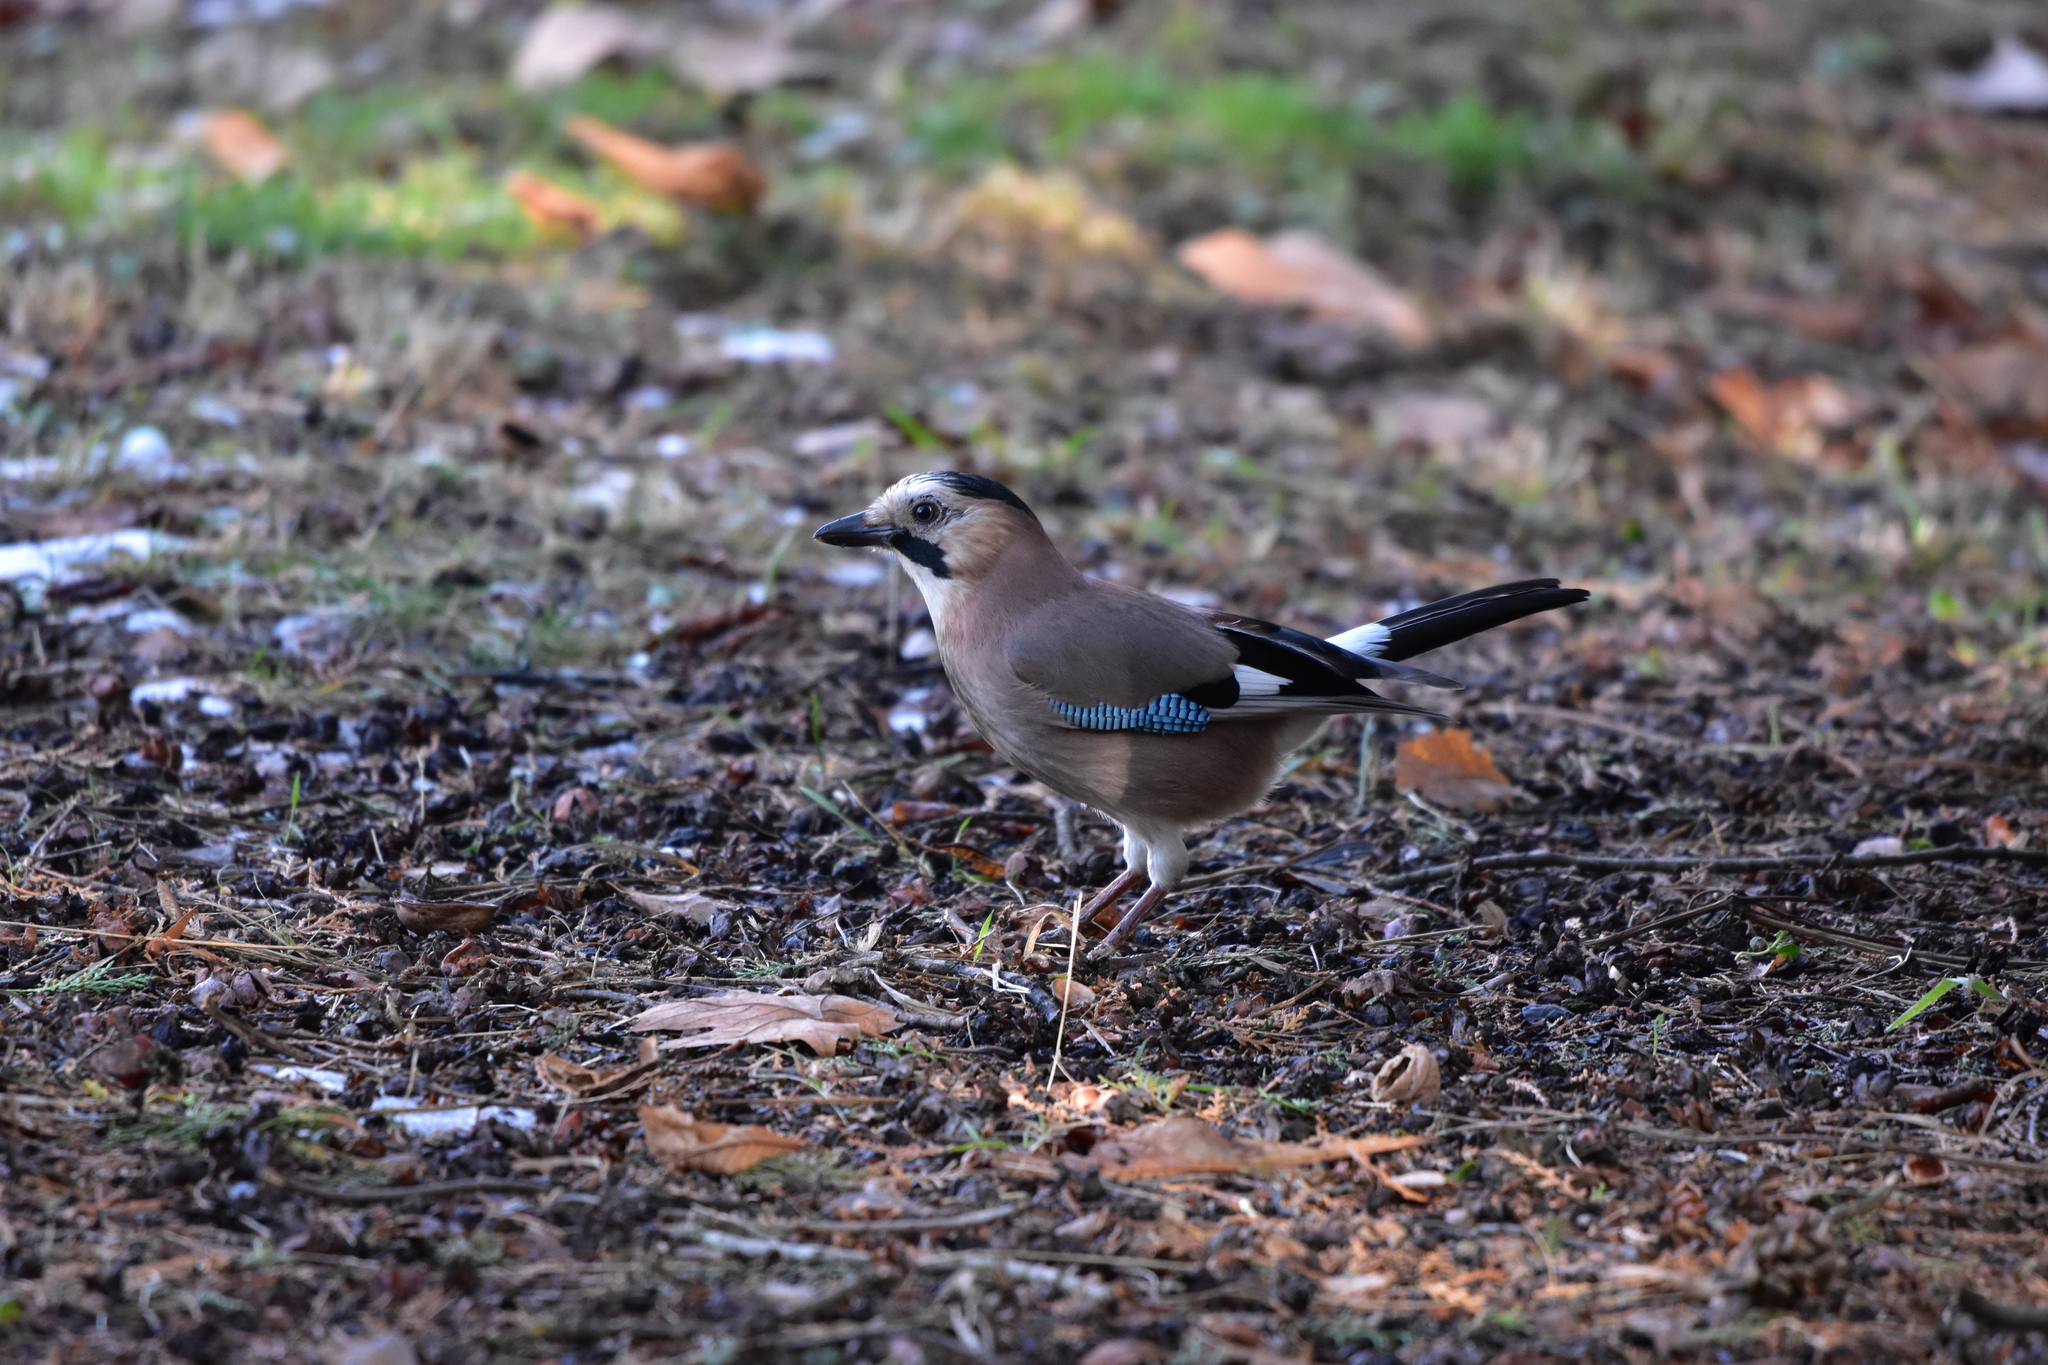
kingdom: Animalia
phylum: Chordata
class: Aves
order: Passeriformes
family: Corvidae
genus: Garrulus
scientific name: Garrulus glandarius
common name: Eurasian jay
